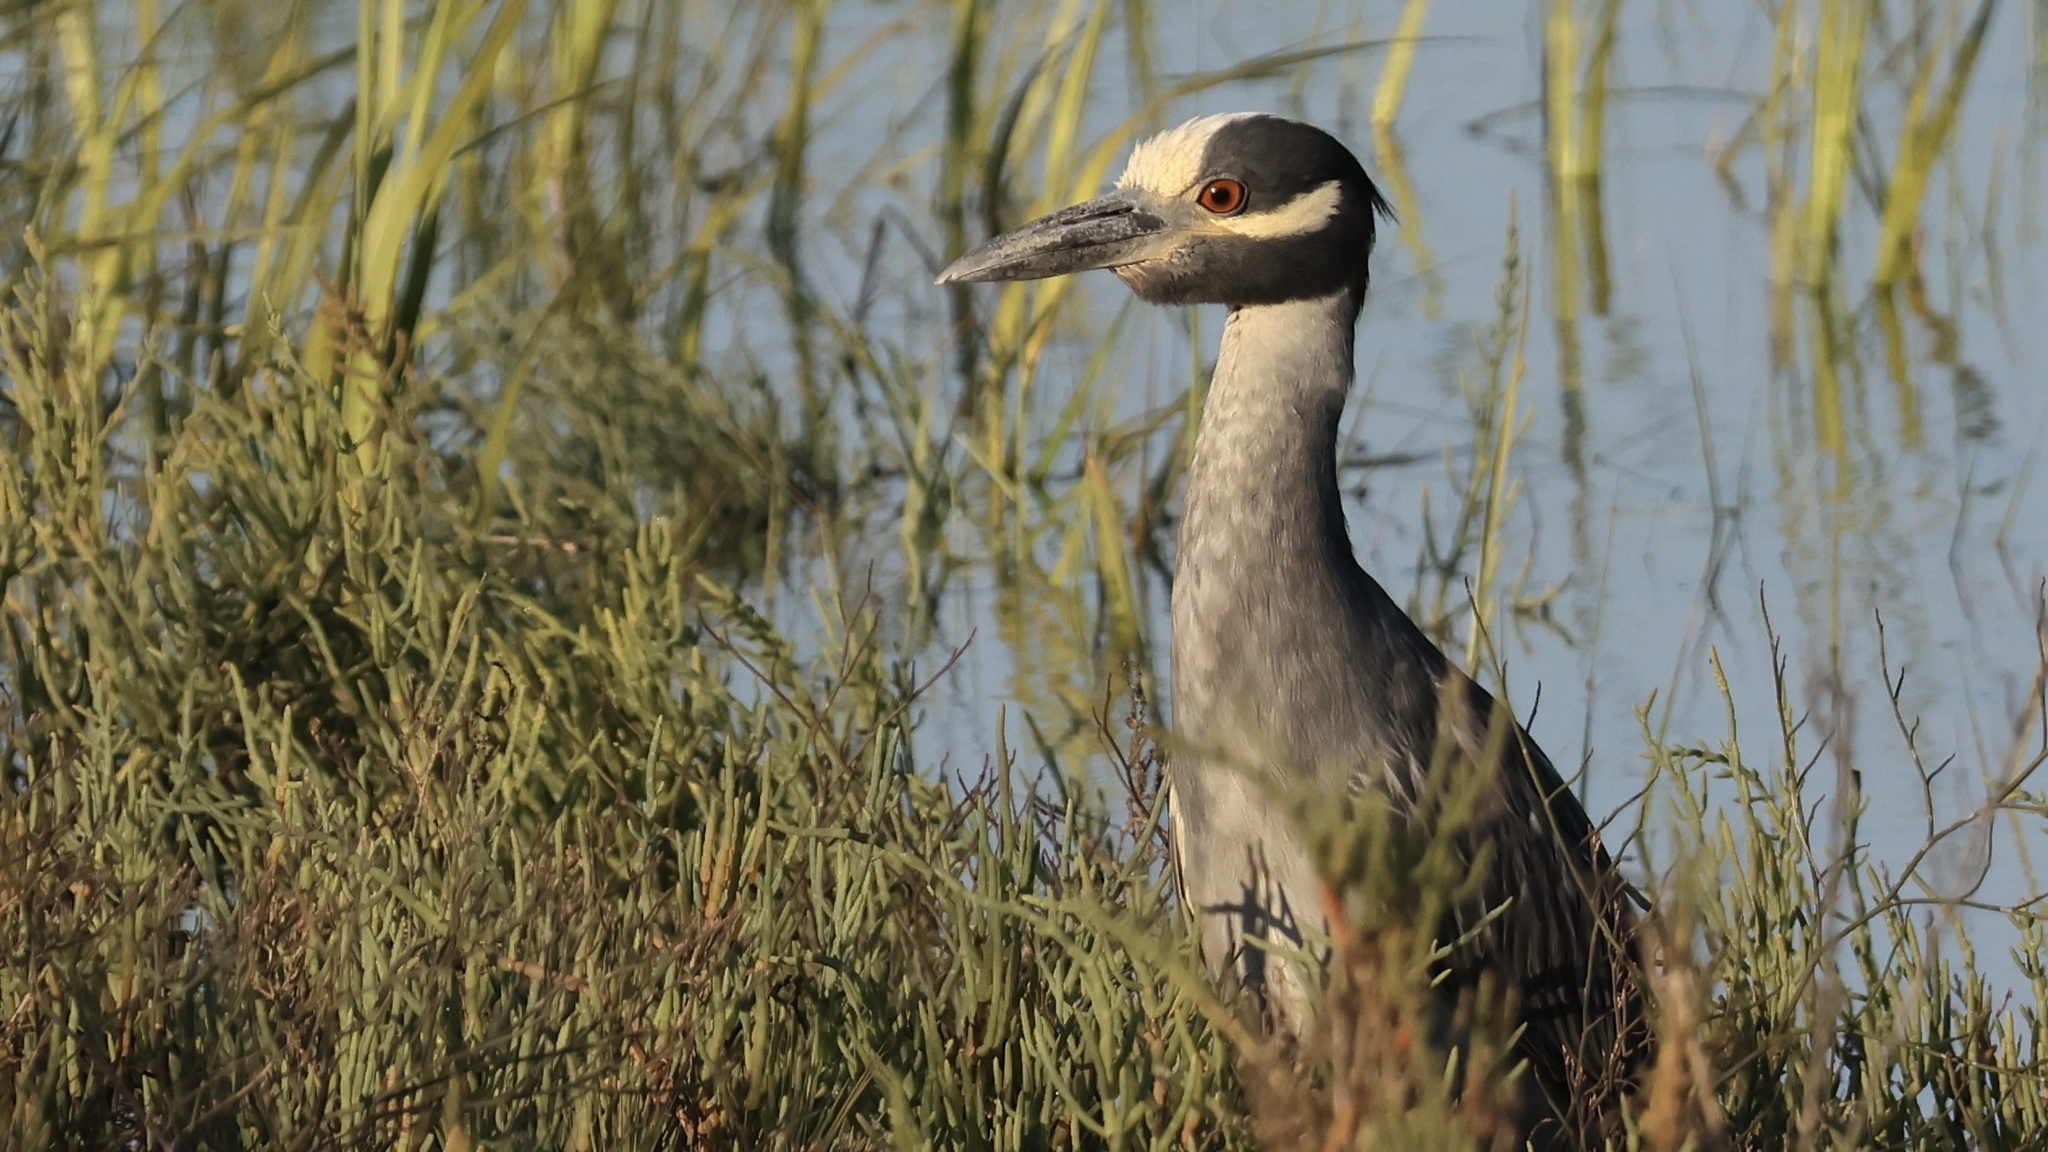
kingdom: Animalia
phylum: Chordata
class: Aves
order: Pelecaniformes
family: Ardeidae
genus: Nyctanassa
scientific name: Nyctanassa violacea
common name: Yellow-crowned night heron
